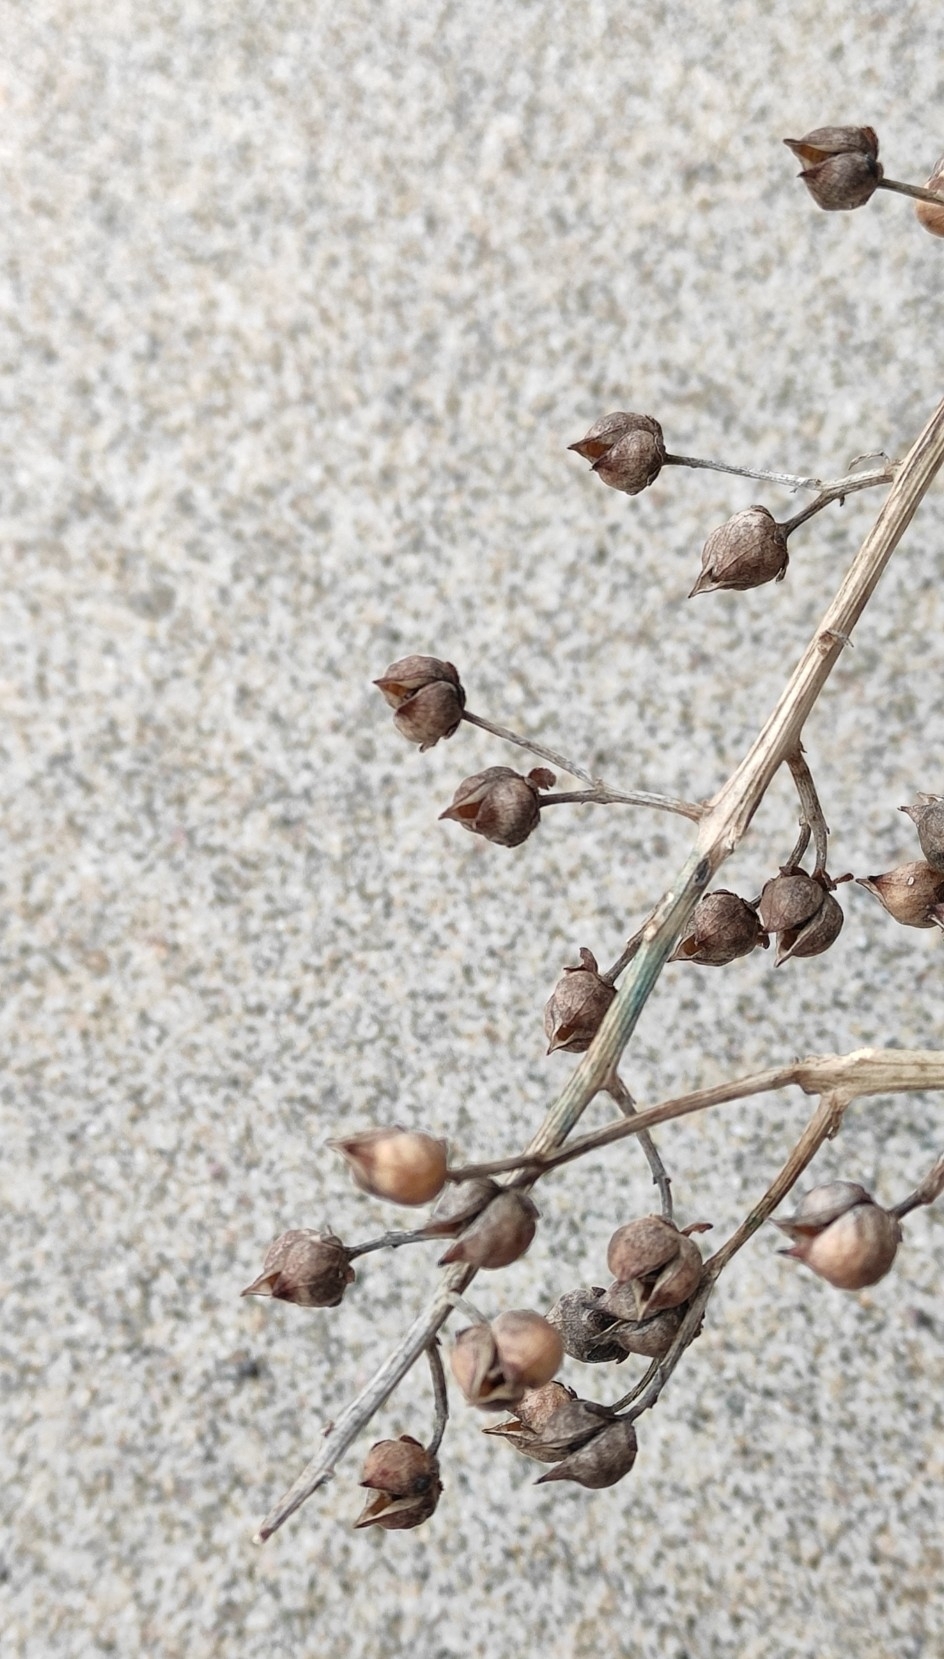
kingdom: Plantae
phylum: Tracheophyta
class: Magnoliopsida
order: Lamiales
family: Scrophulariaceae
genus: Scrophularia
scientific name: Scrophularia incisa
